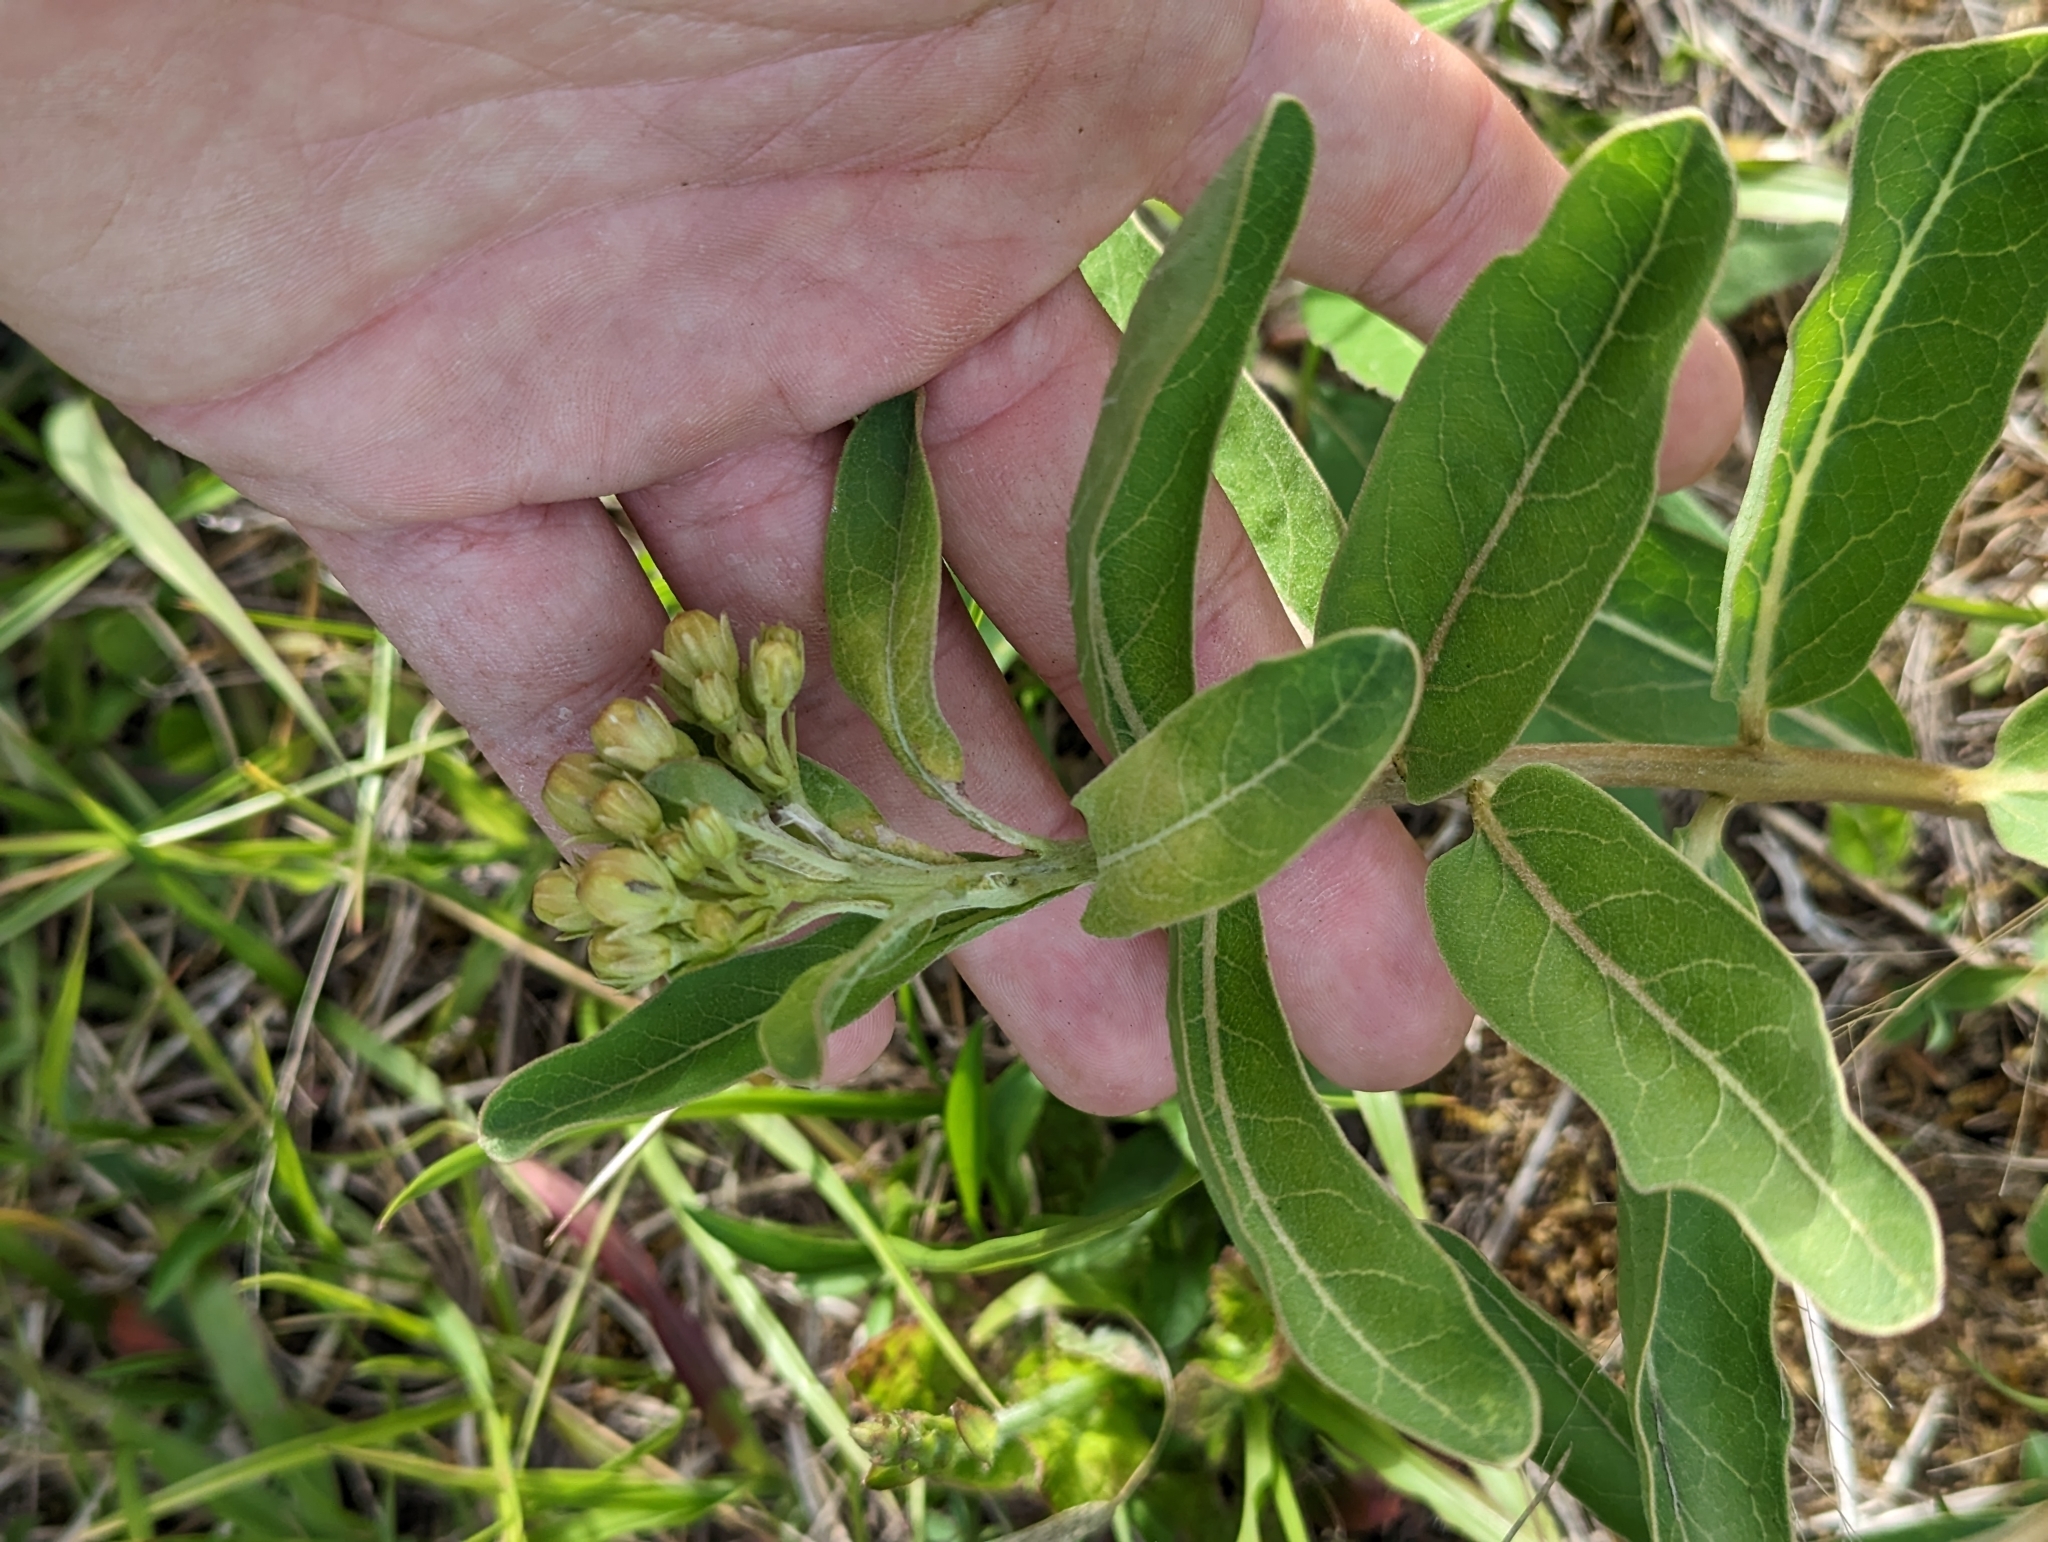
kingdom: Plantae
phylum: Tracheophyta
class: Magnoliopsida
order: Gentianales
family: Apocynaceae
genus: Asclepias
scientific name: Asclepias viridis
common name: Antelope-horns
